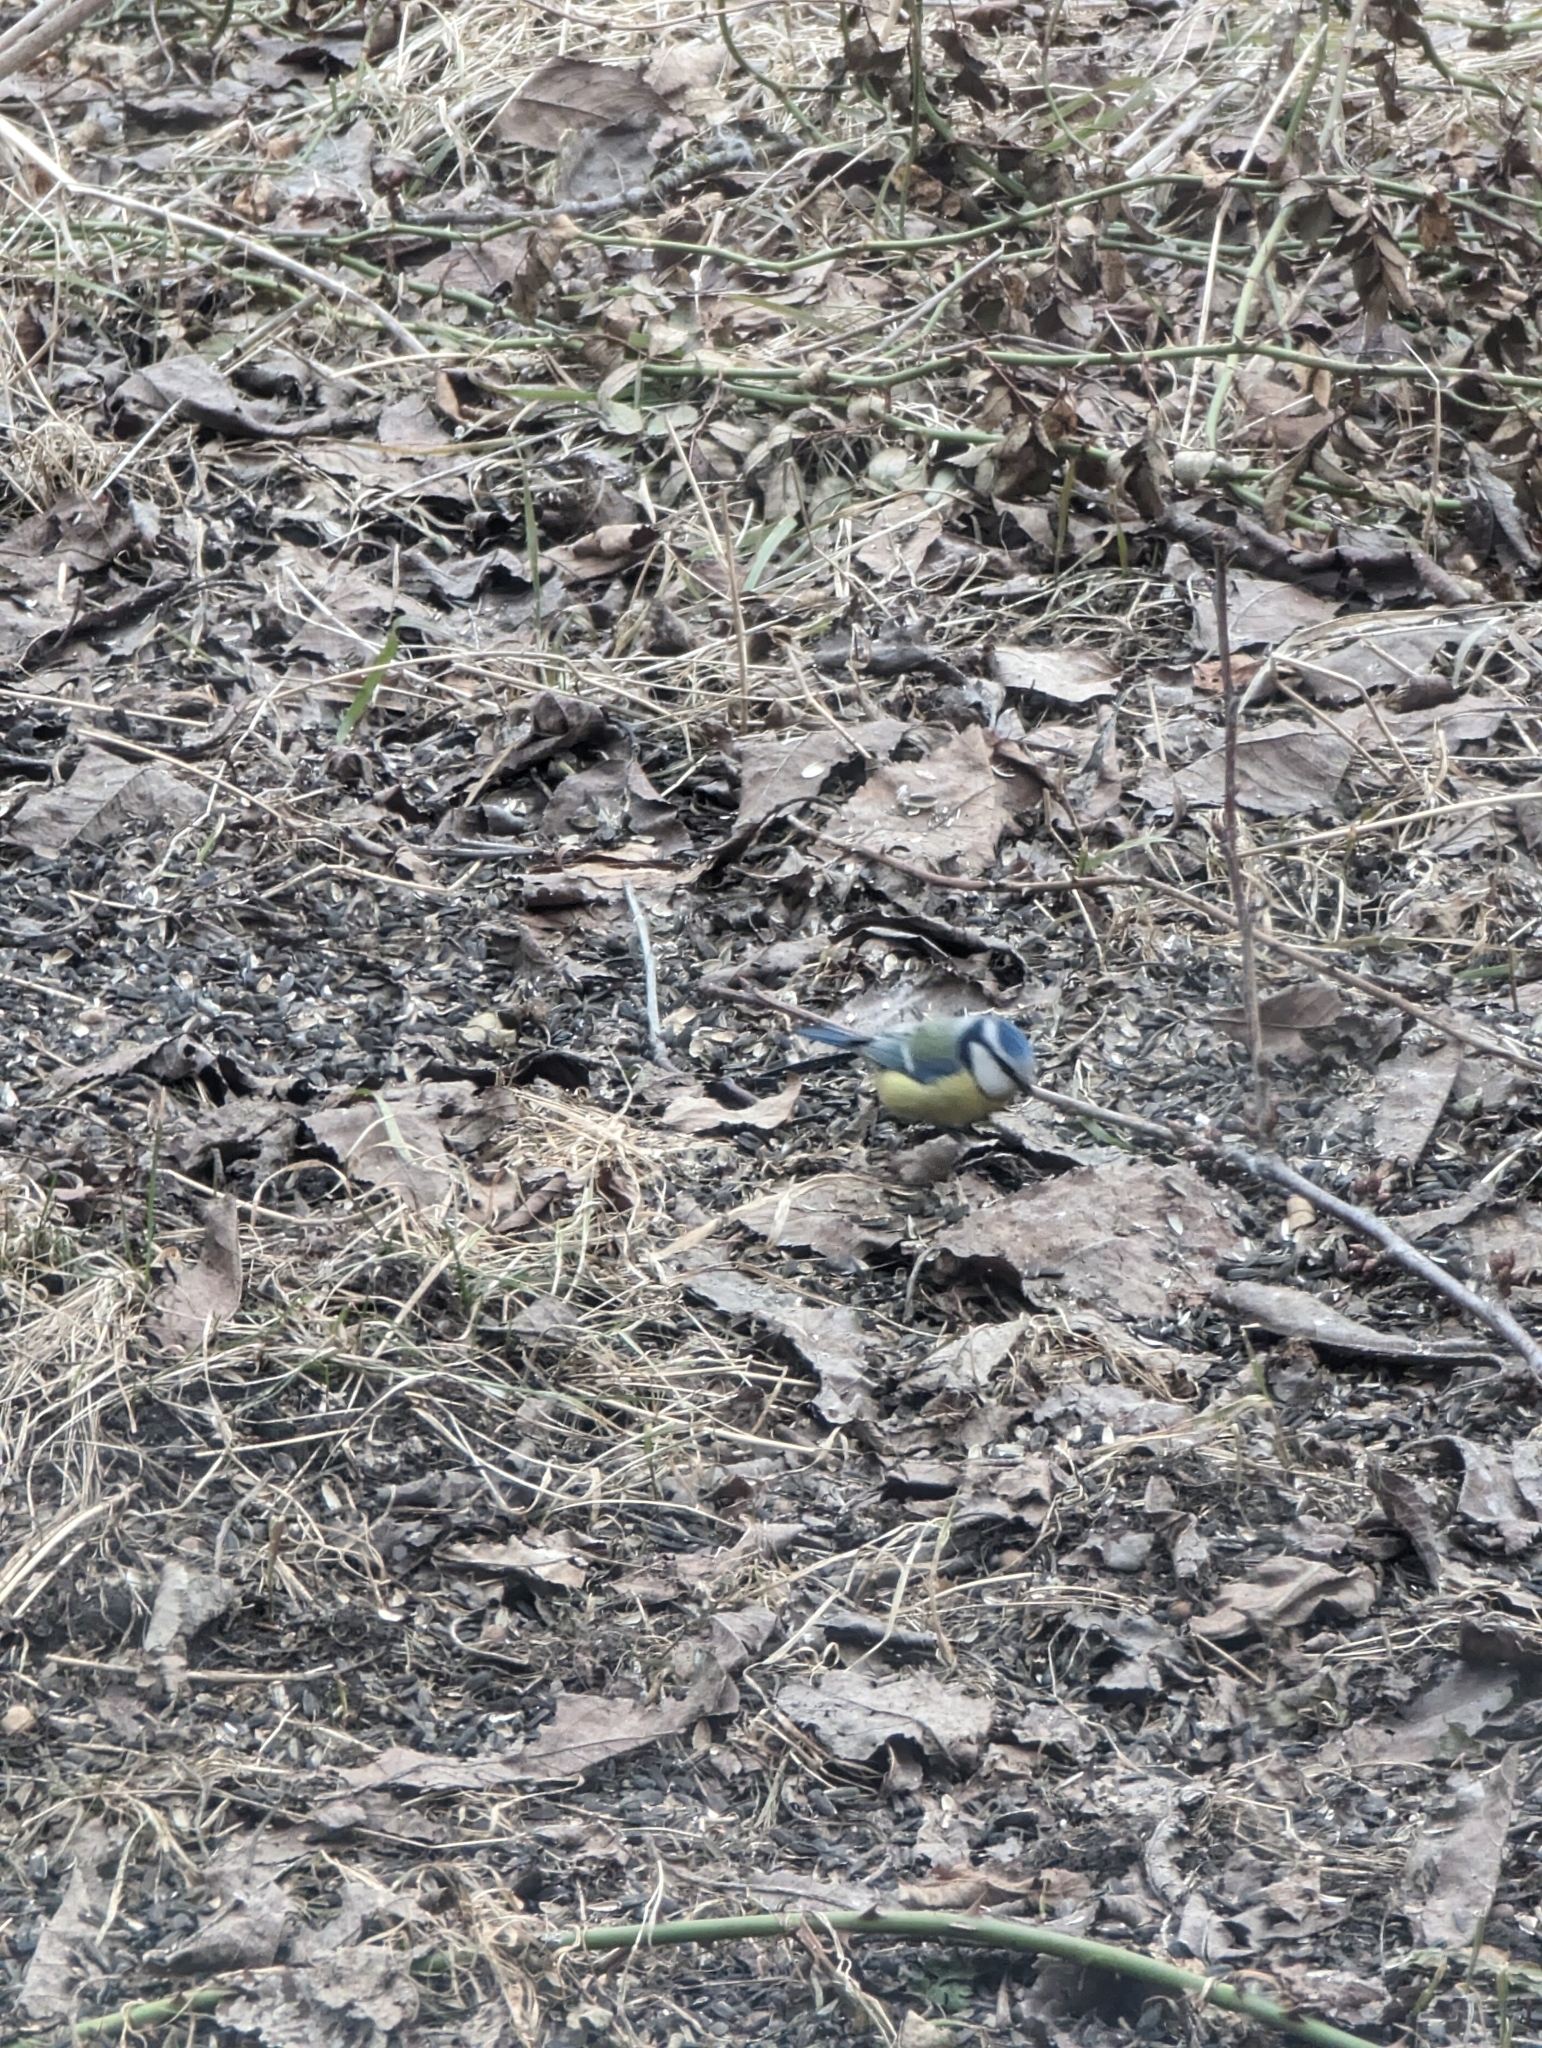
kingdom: Animalia
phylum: Chordata
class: Aves
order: Passeriformes
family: Paridae
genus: Cyanistes
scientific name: Cyanistes caeruleus
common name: Eurasian blue tit
